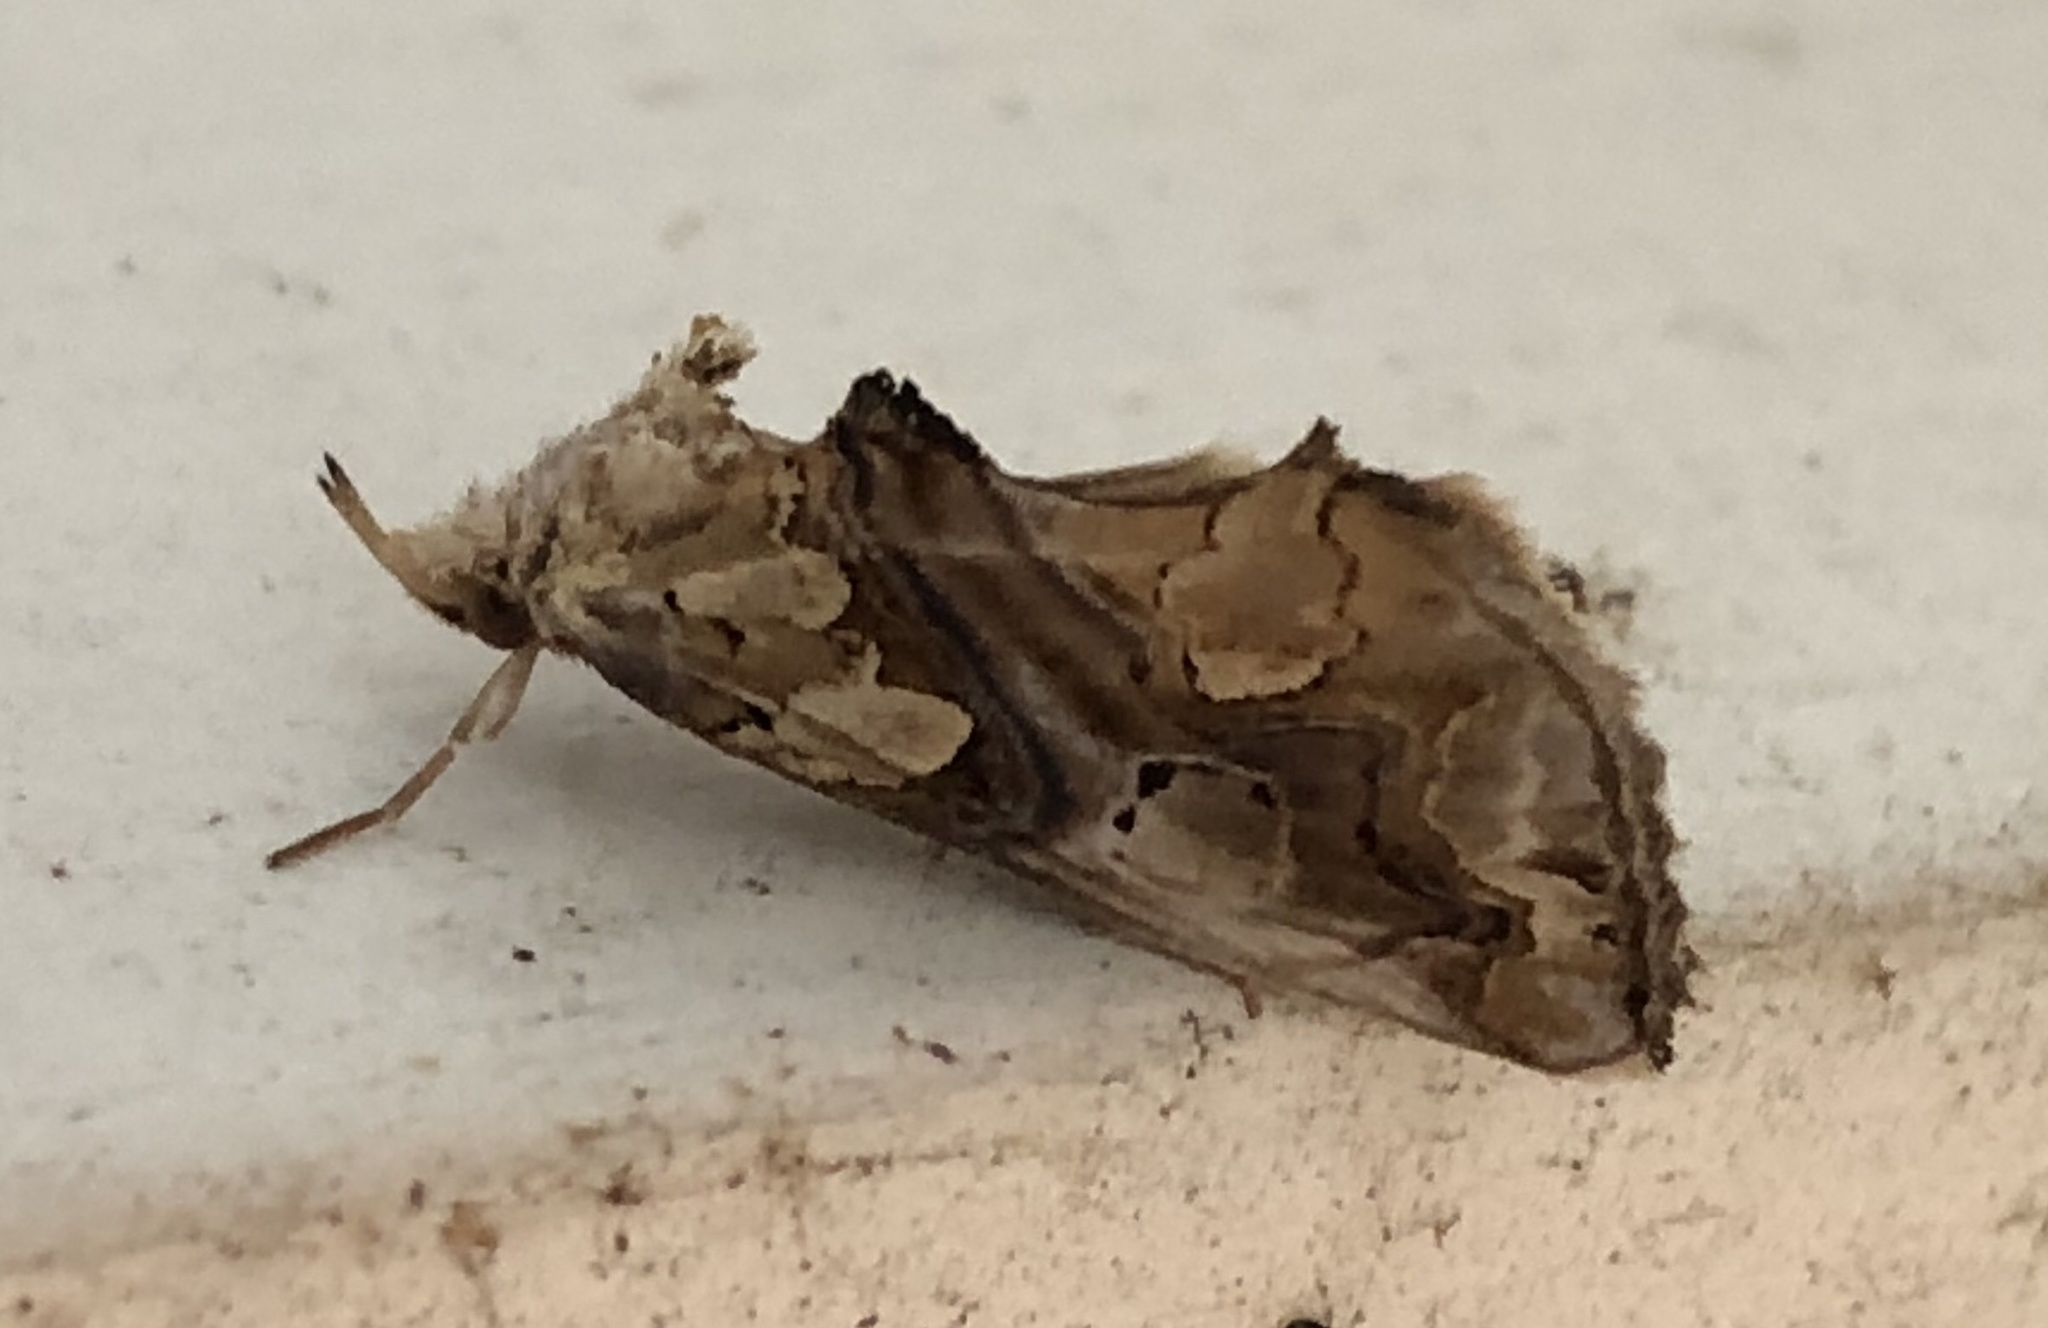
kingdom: Animalia
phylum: Arthropoda
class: Insecta
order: Lepidoptera
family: Erebidae
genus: Plusiodonta
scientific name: Plusiodonta compressipalpis
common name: Moonseed moth
